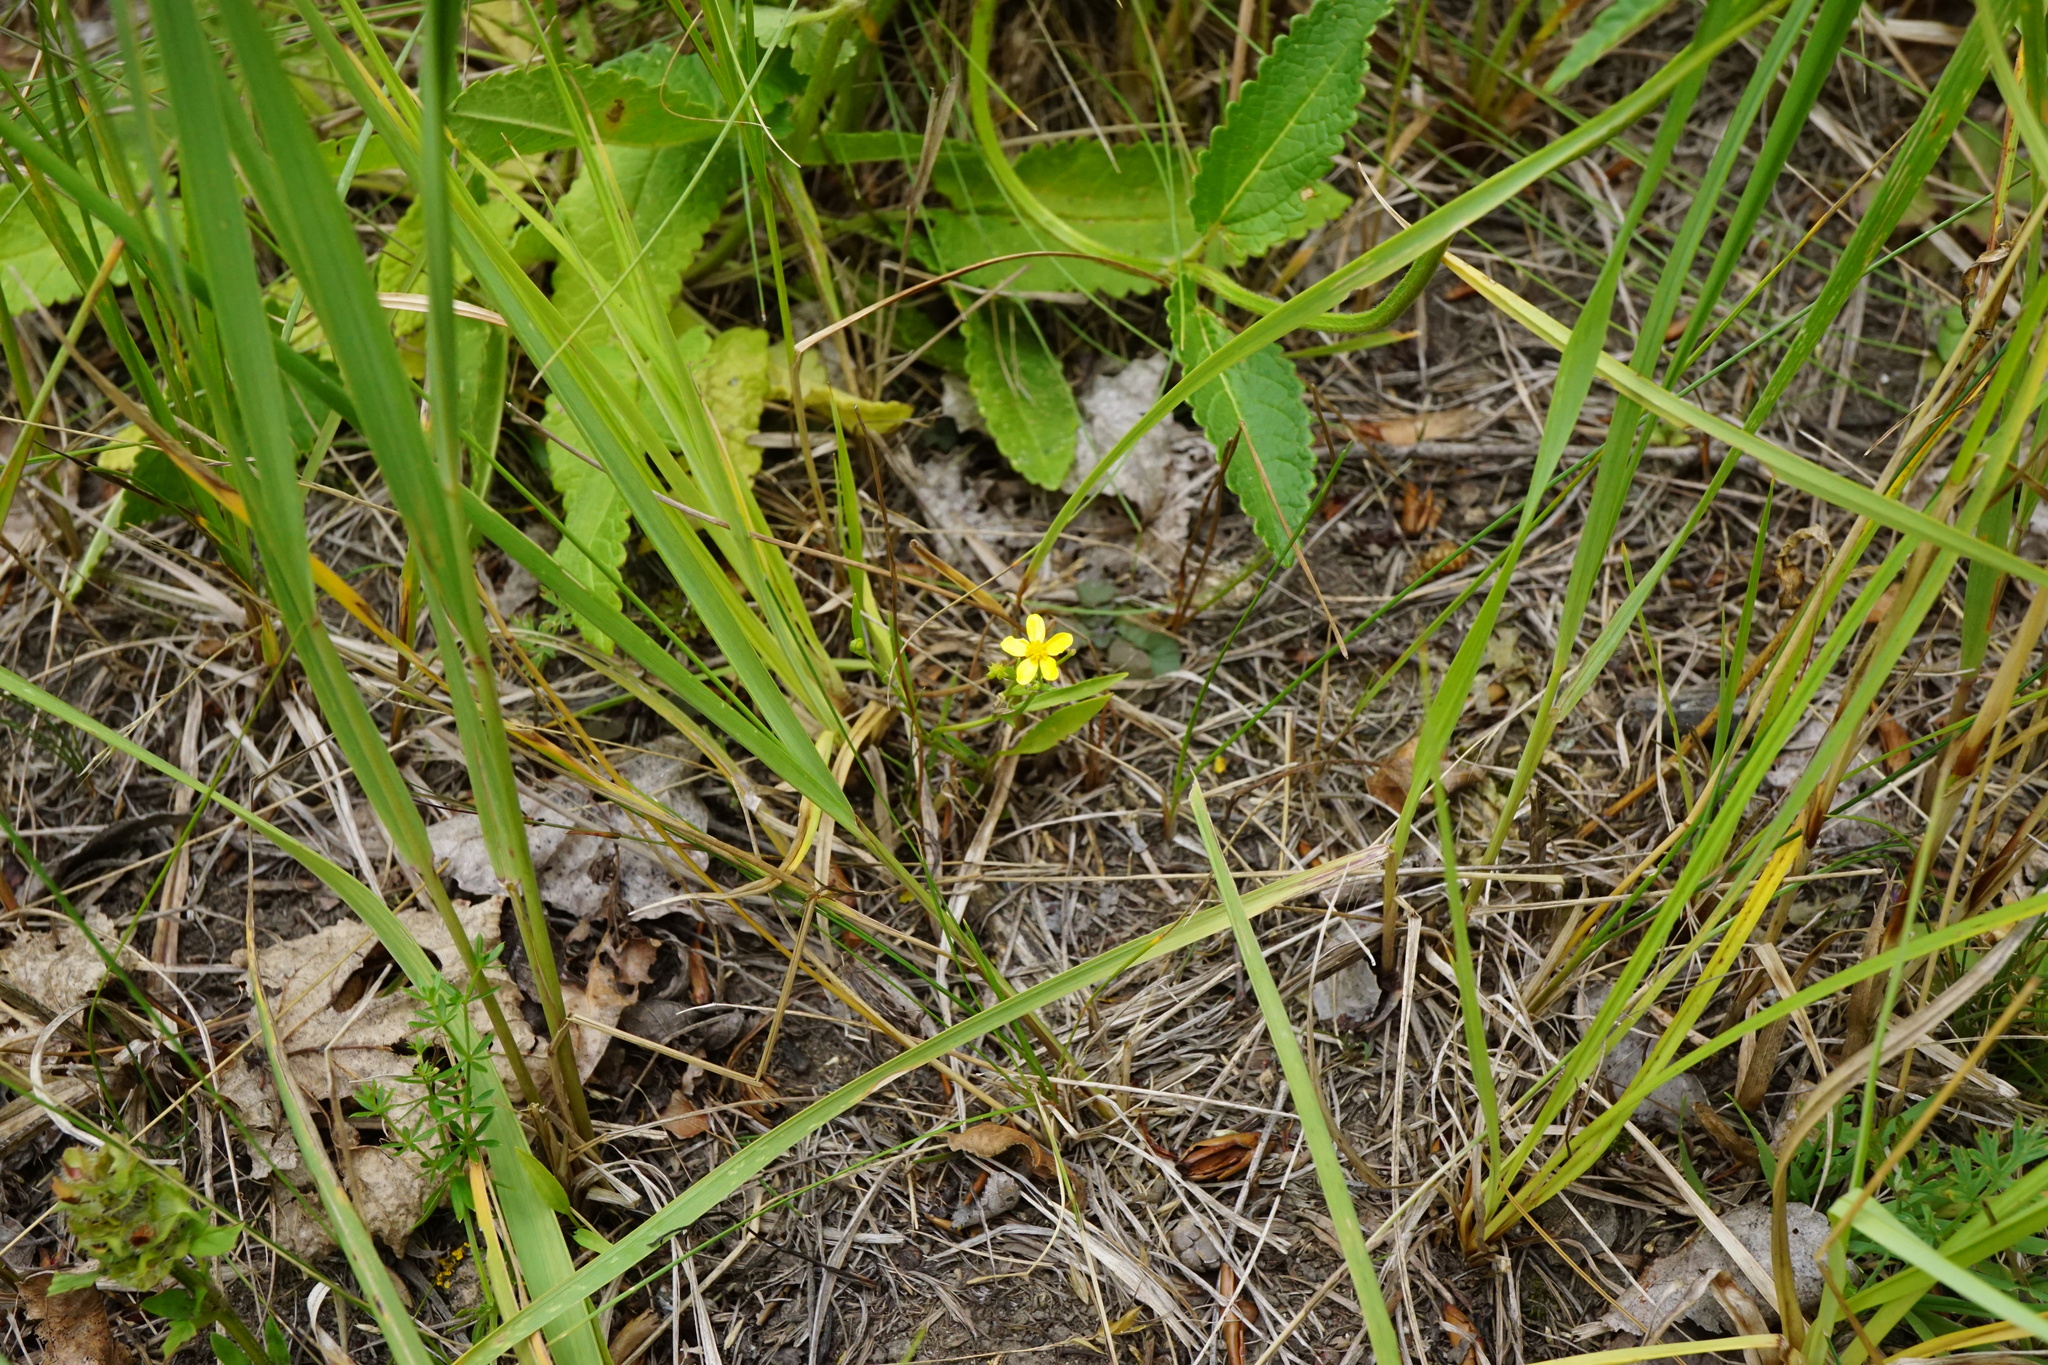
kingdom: Plantae
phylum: Tracheophyta
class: Magnoliopsida
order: Ranunculales
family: Ranunculaceae
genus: Ranunculus
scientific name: Ranunculus flammula
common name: Lesser spearwort
